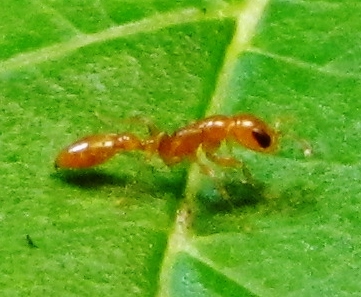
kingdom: Animalia
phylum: Arthropoda
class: Insecta
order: Hymenoptera
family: Formicidae
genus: Pseudomyrmex
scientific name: Pseudomyrmex pallidus
